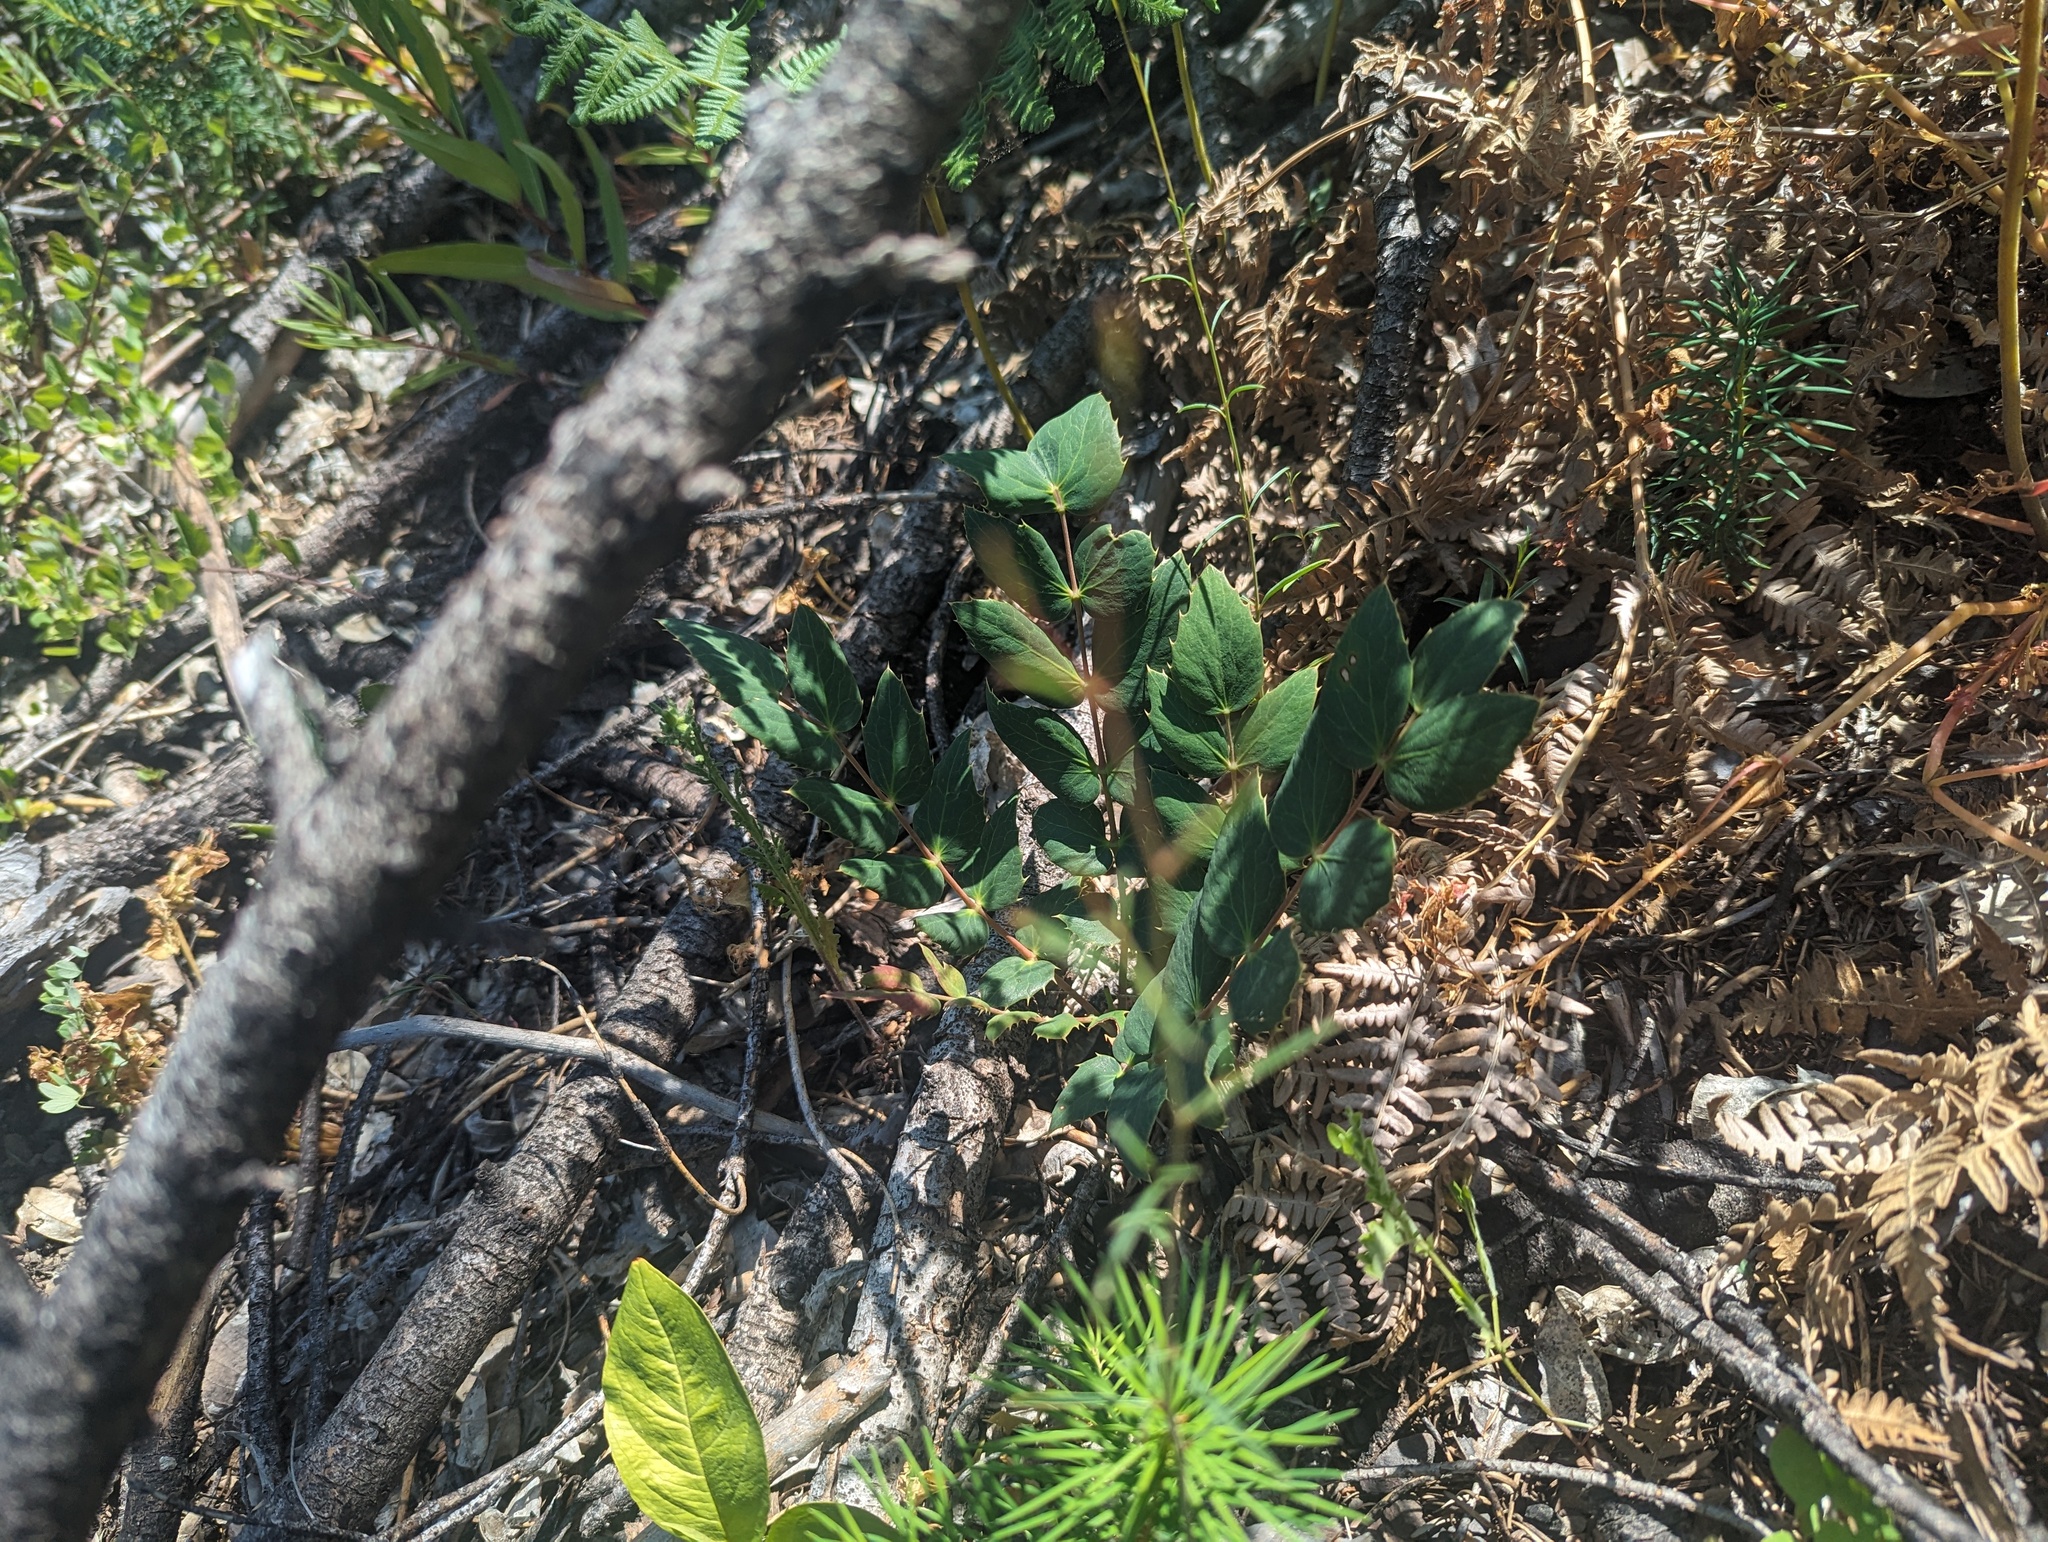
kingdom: Plantae
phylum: Tracheophyta
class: Magnoliopsida
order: Ranunculales
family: Berberidaceae
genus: Mahonia
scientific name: Mahonia nervosa
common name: Cascade oregon-grape
